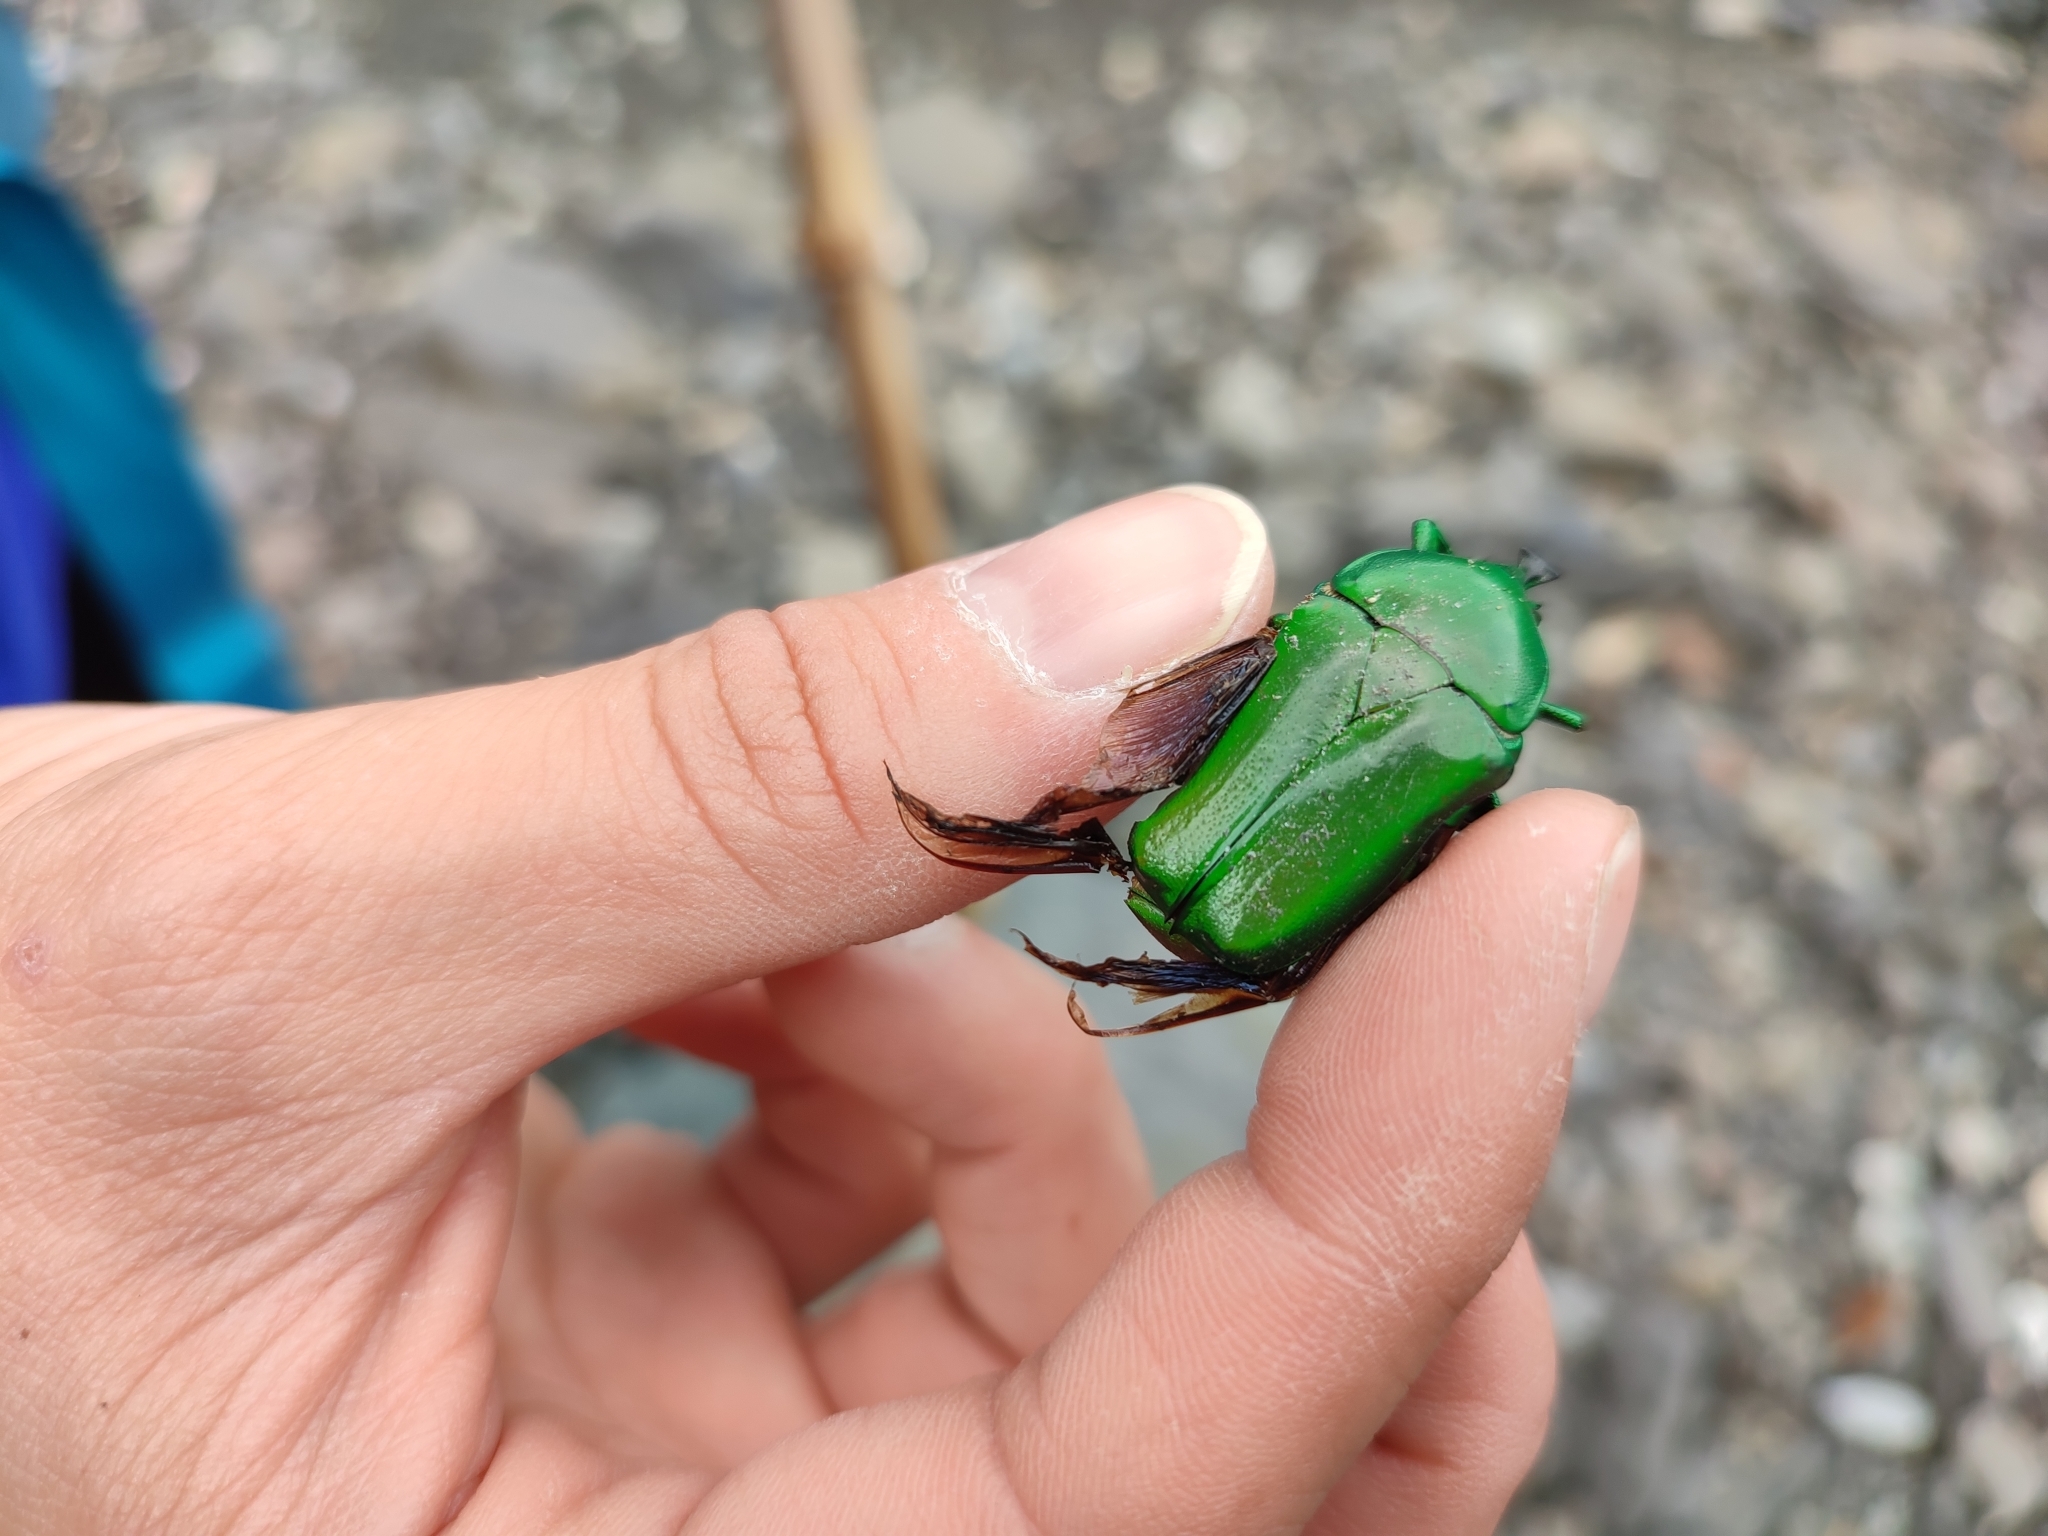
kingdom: Animalia
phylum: Arthropoda
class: Insecta
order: Coleoptera
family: Scarabaeidae
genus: Trigonophorus
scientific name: Trigonophorus rothschildi
